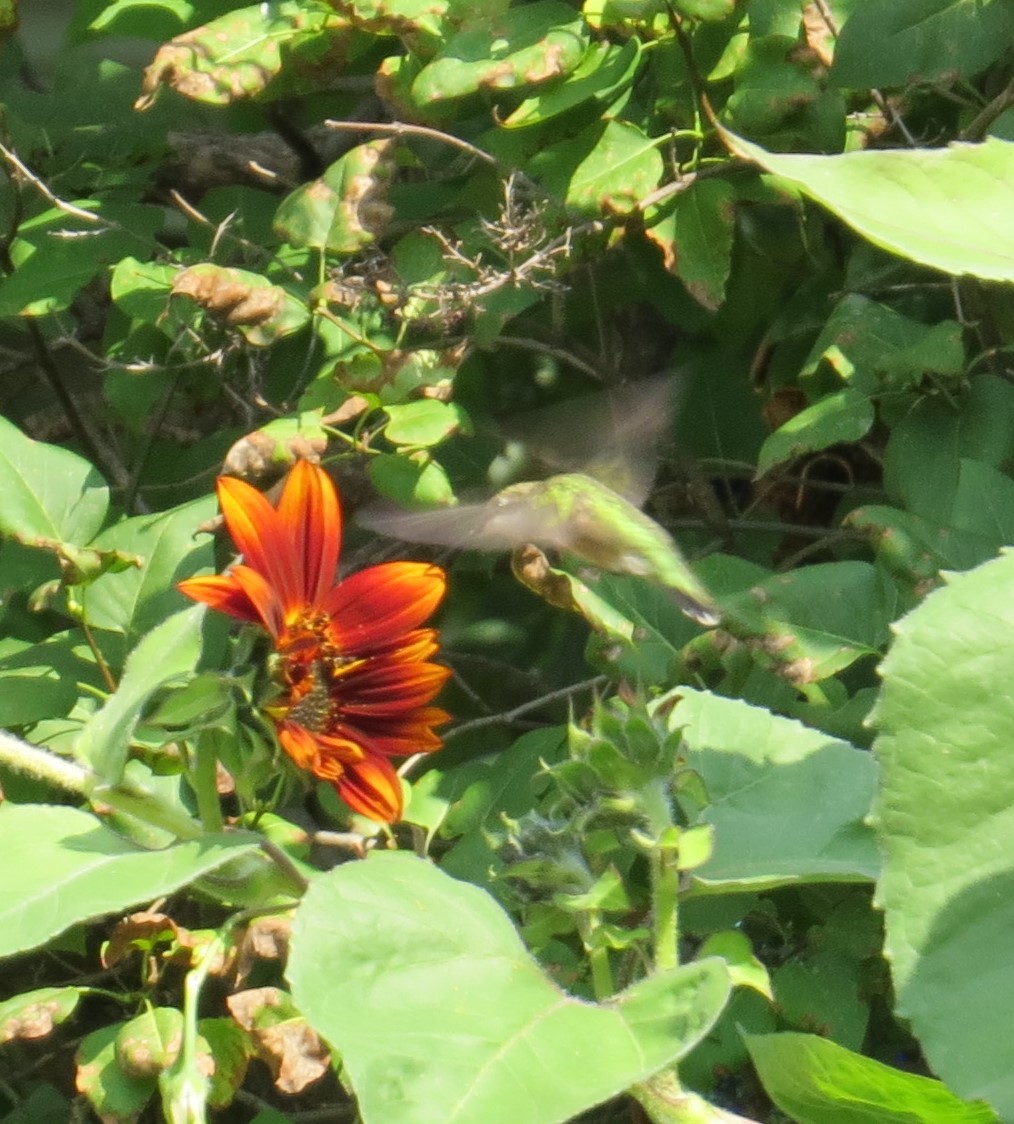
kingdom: Animalia
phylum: Chordata
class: Aves
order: Passeriformes
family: Cardinalidae
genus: Cardinalis
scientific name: Cardinalis cardinalis
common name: Northern cardinal
